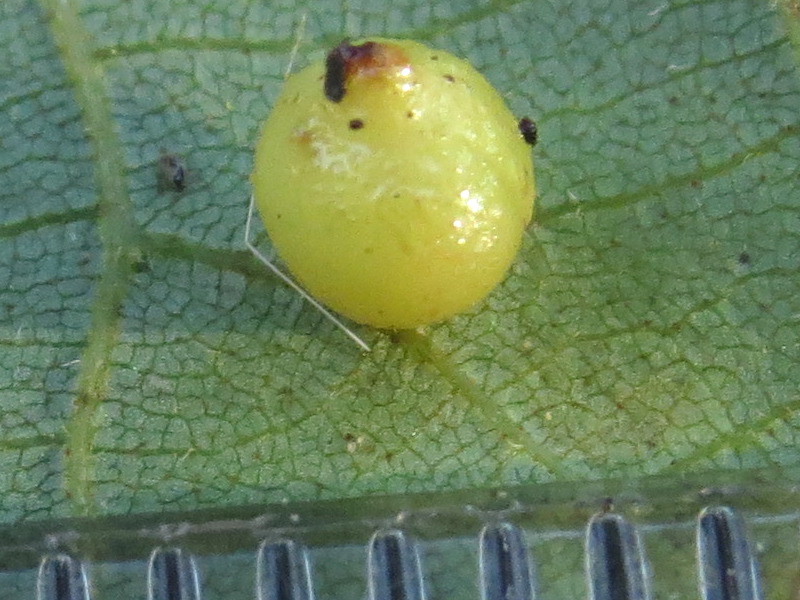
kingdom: Animalia
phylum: Arthropoda
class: Insecta
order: Diptera
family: Cecidomyiidae
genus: Caryomyia
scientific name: Caryomyia caryae
